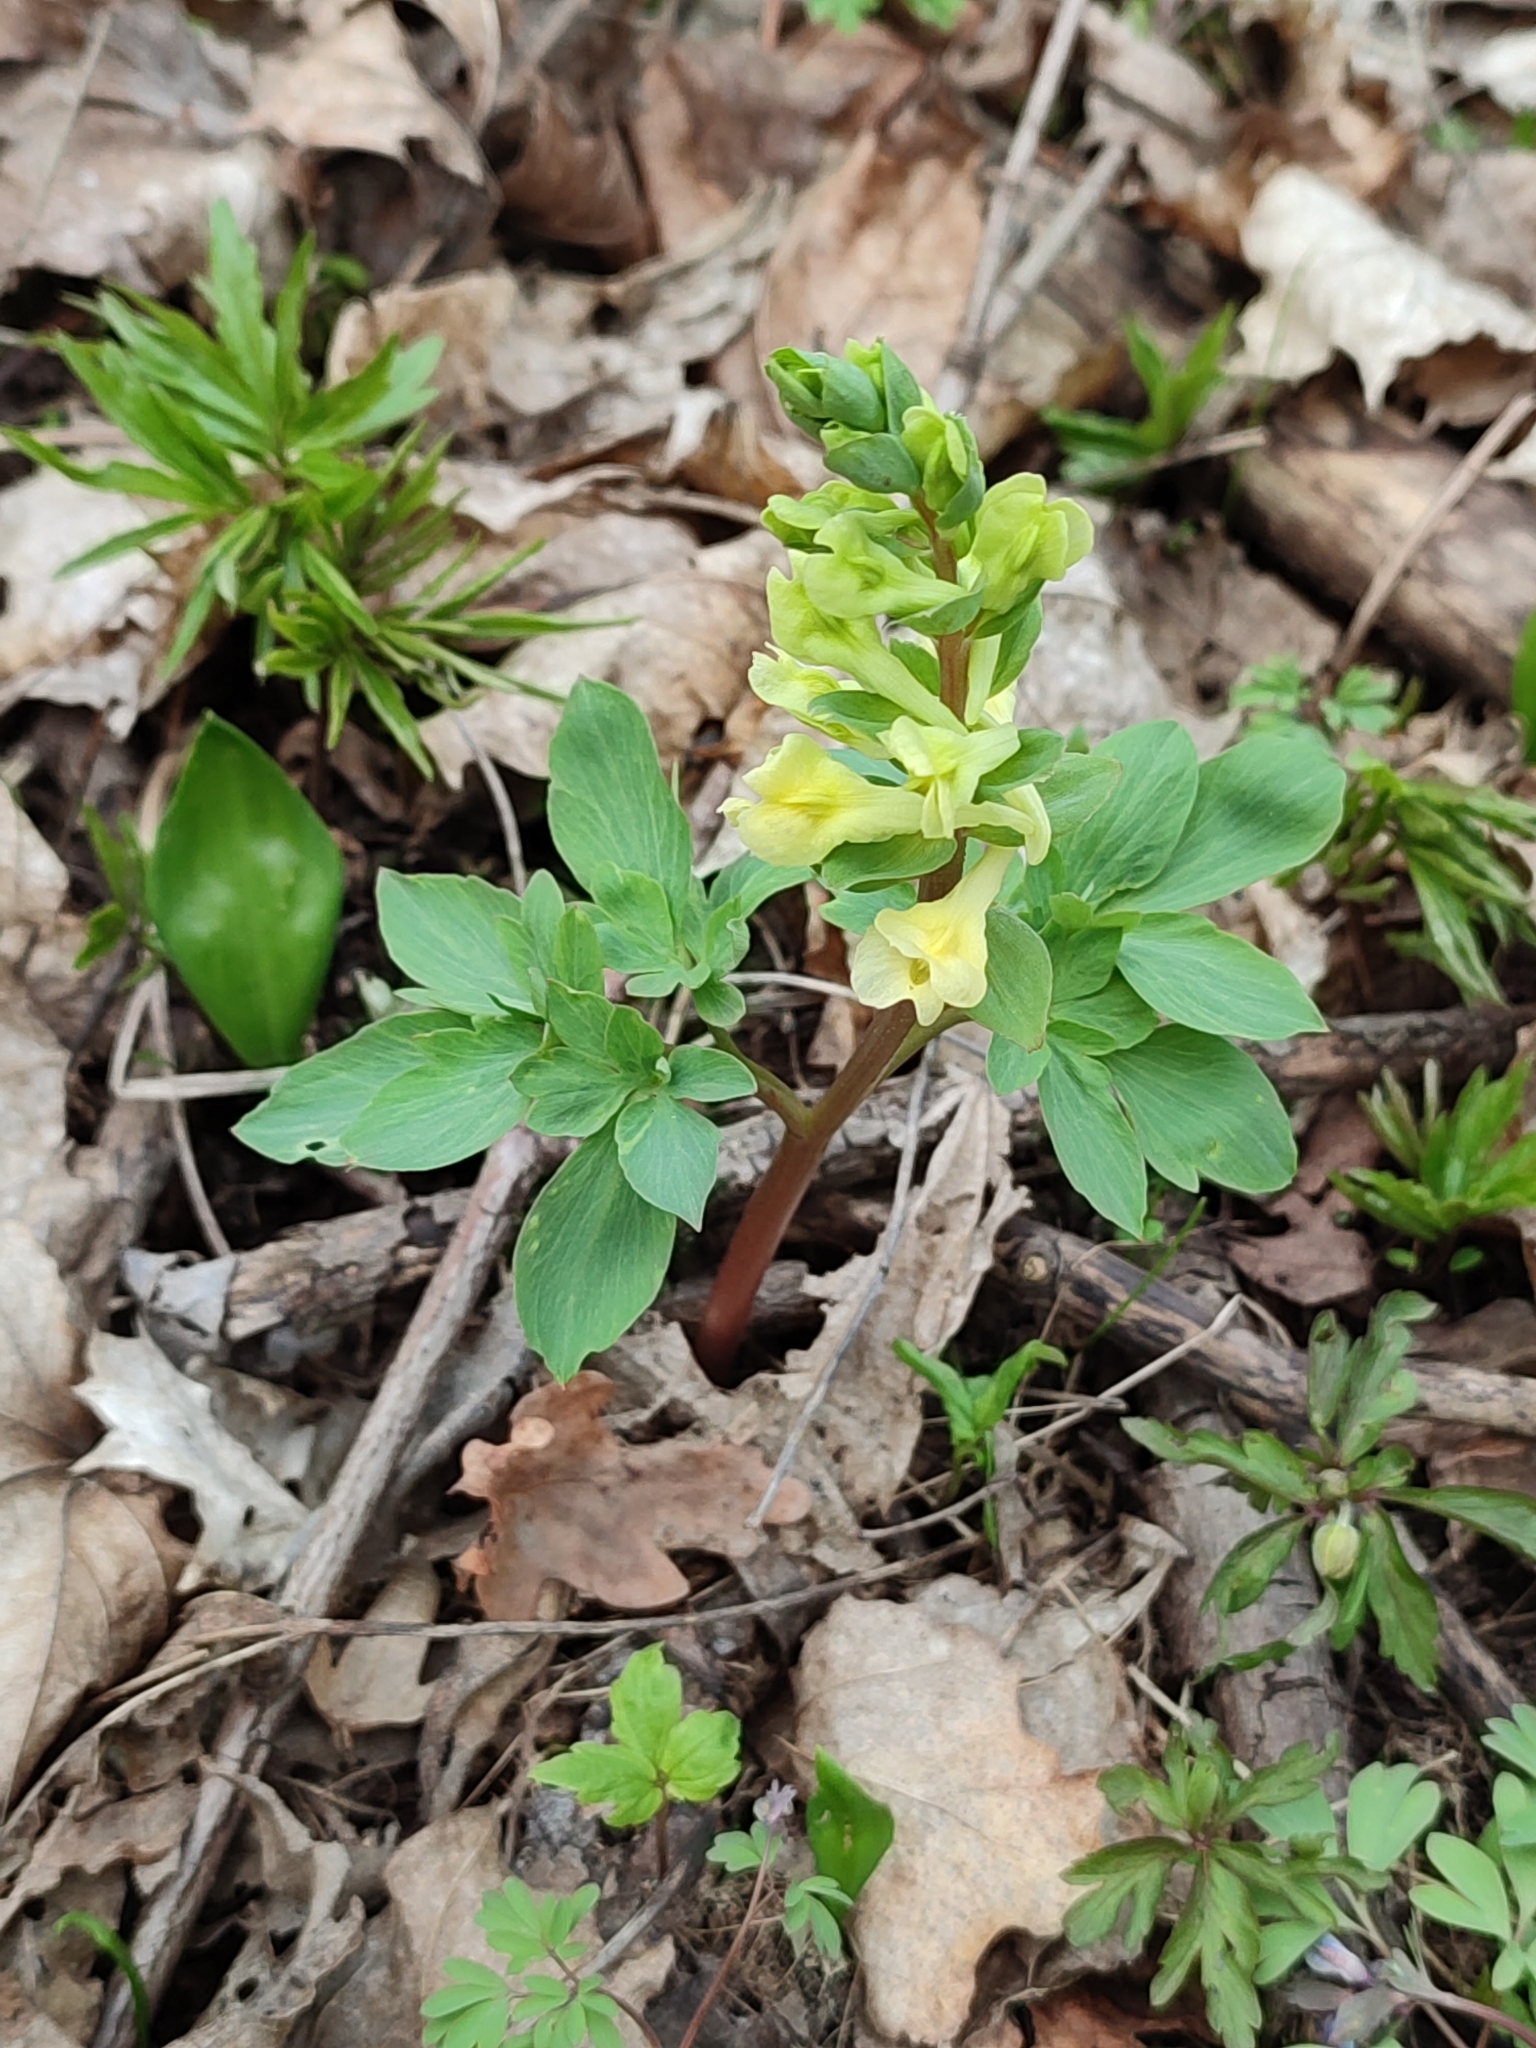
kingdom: Plantae
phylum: Tracheophyta
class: Magnoliopsida
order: Ranunculales
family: Papaveraceae
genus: Corydalis
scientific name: Corydalis cava
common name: Hollowroot
